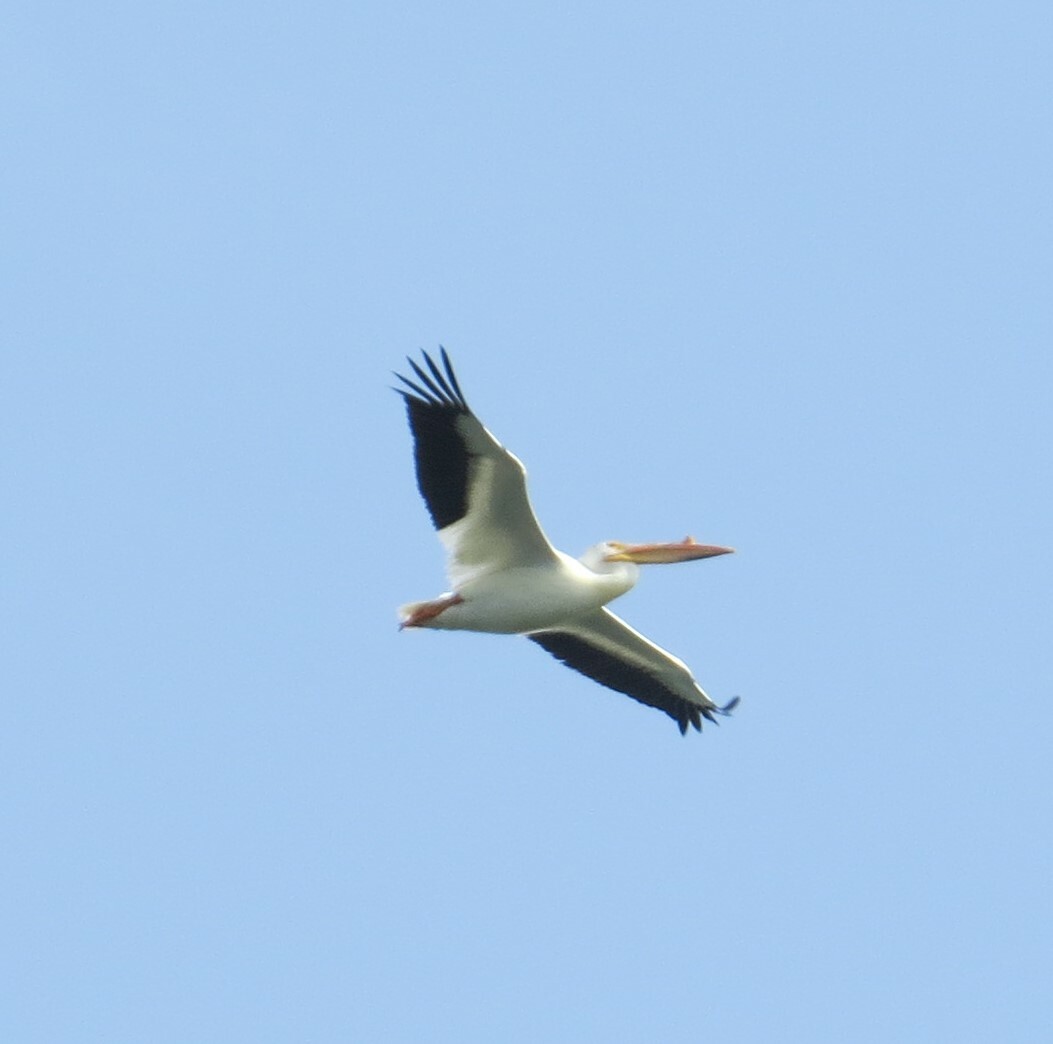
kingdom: Animalia
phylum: Chordata
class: Aves
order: Pelecaniformes
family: Pelecanidae
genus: Pelecanus
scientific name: Pelecanus erythrorhynchos
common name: American white pelican
